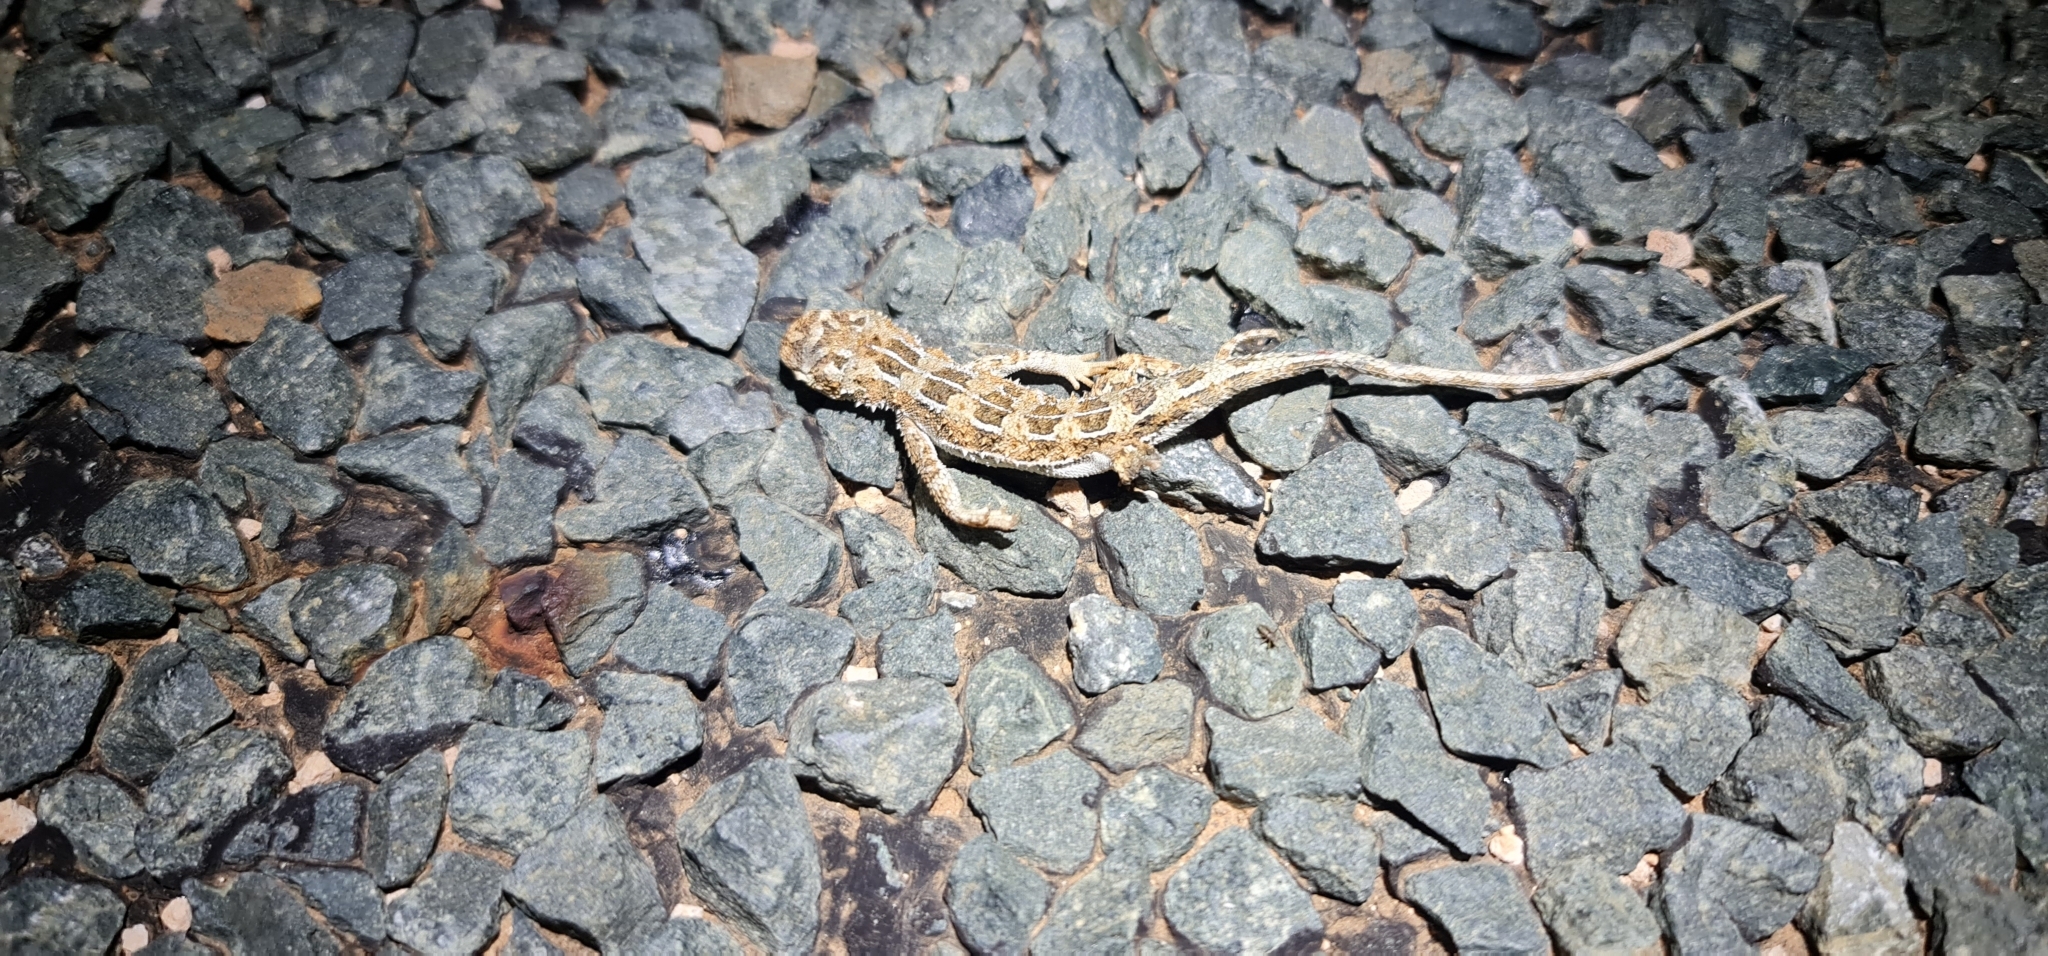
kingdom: Animalia
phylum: Chordata
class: Squamata
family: Agamidae
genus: Tympanocryptis
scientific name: Tympanocryptis petersi
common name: Lined earless dragon
